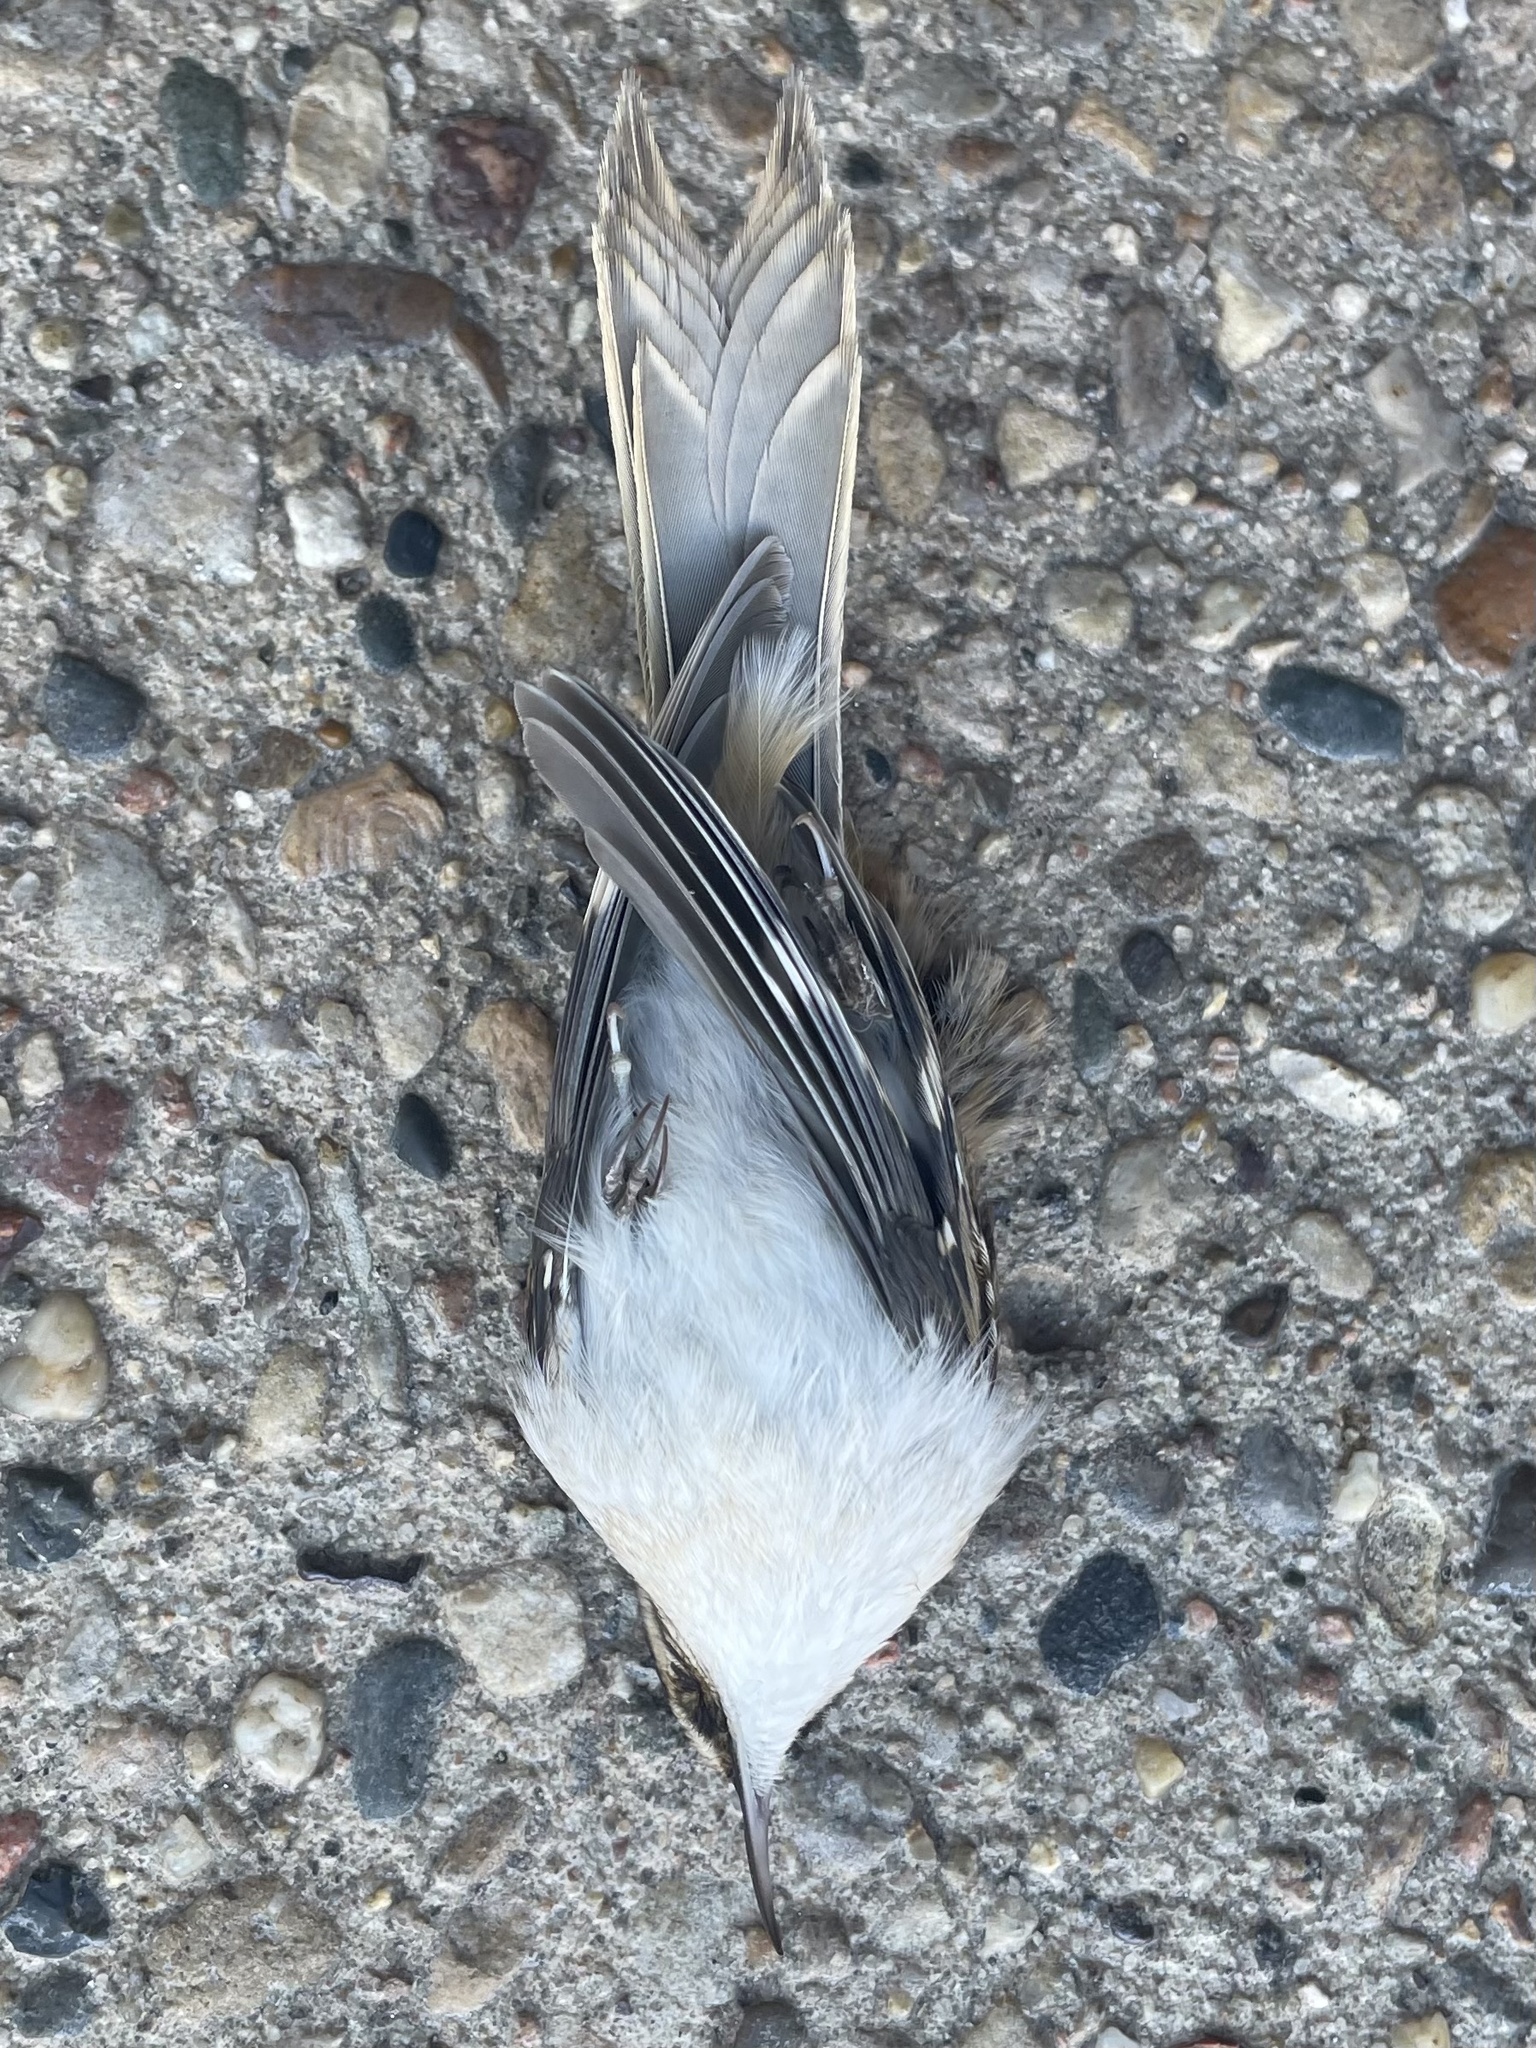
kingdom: Animalia
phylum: Chordata
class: Aves
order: Passeriformes
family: Certhiidae
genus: Certhia
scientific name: Certhia americana
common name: Brown creeper
